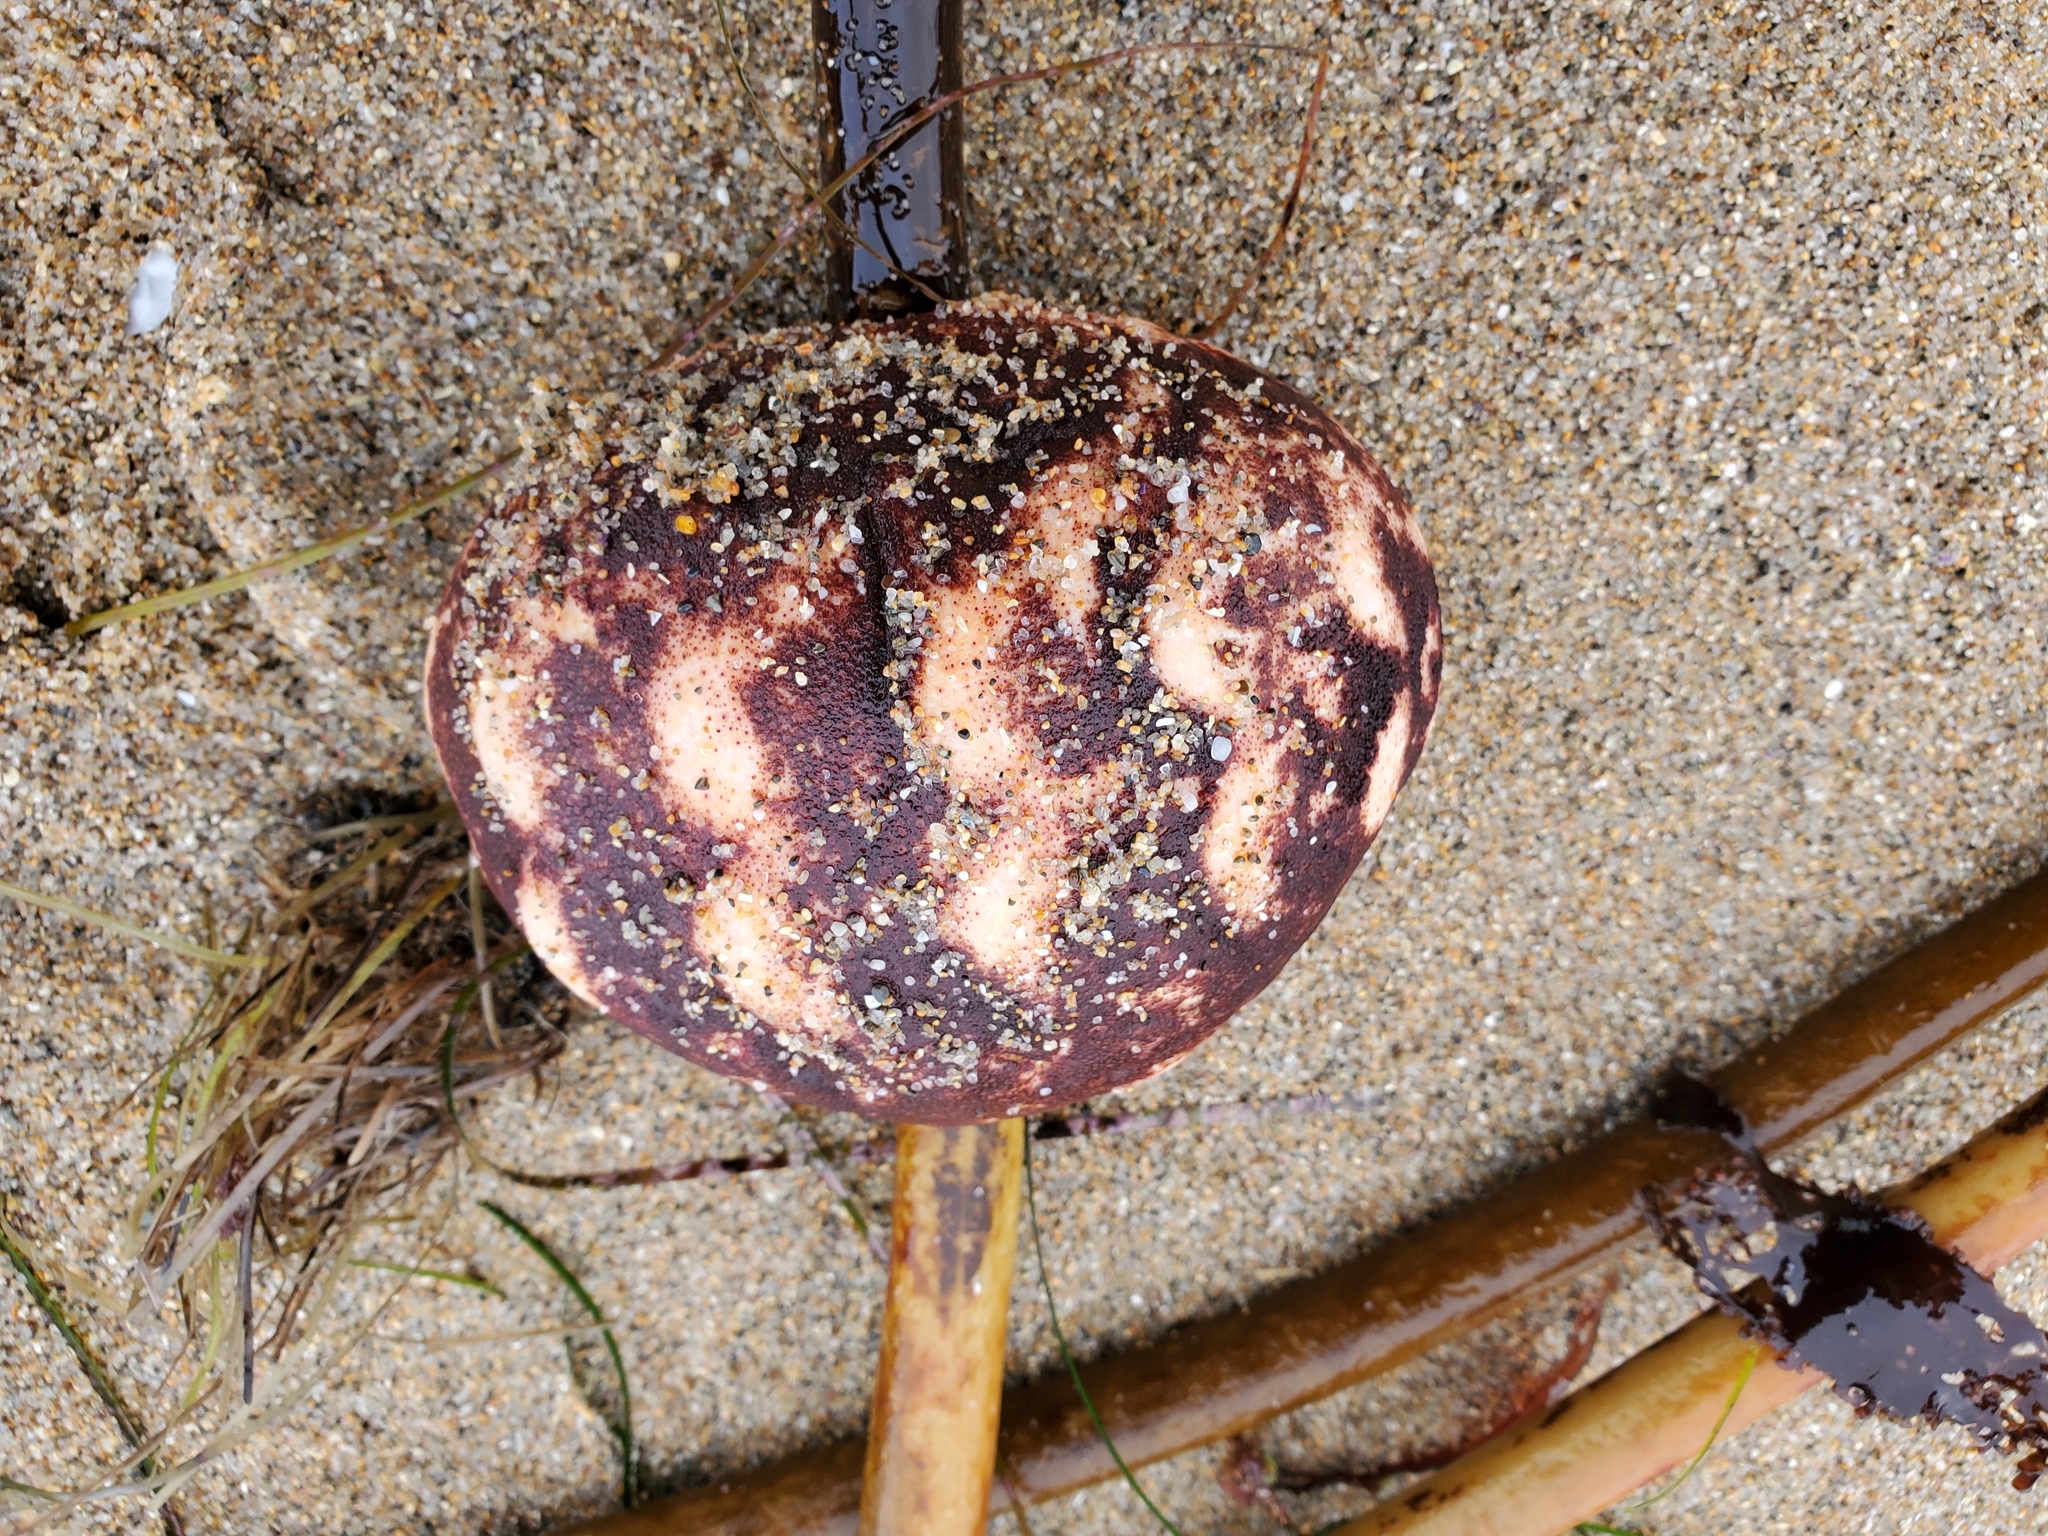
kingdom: Animalia
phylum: Mollusca
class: Polyplacophora
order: Chitonida
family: Acanthochitonidae
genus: Cryptochiton
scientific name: Cryptochiton stelleri
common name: Giant pacific chiton
